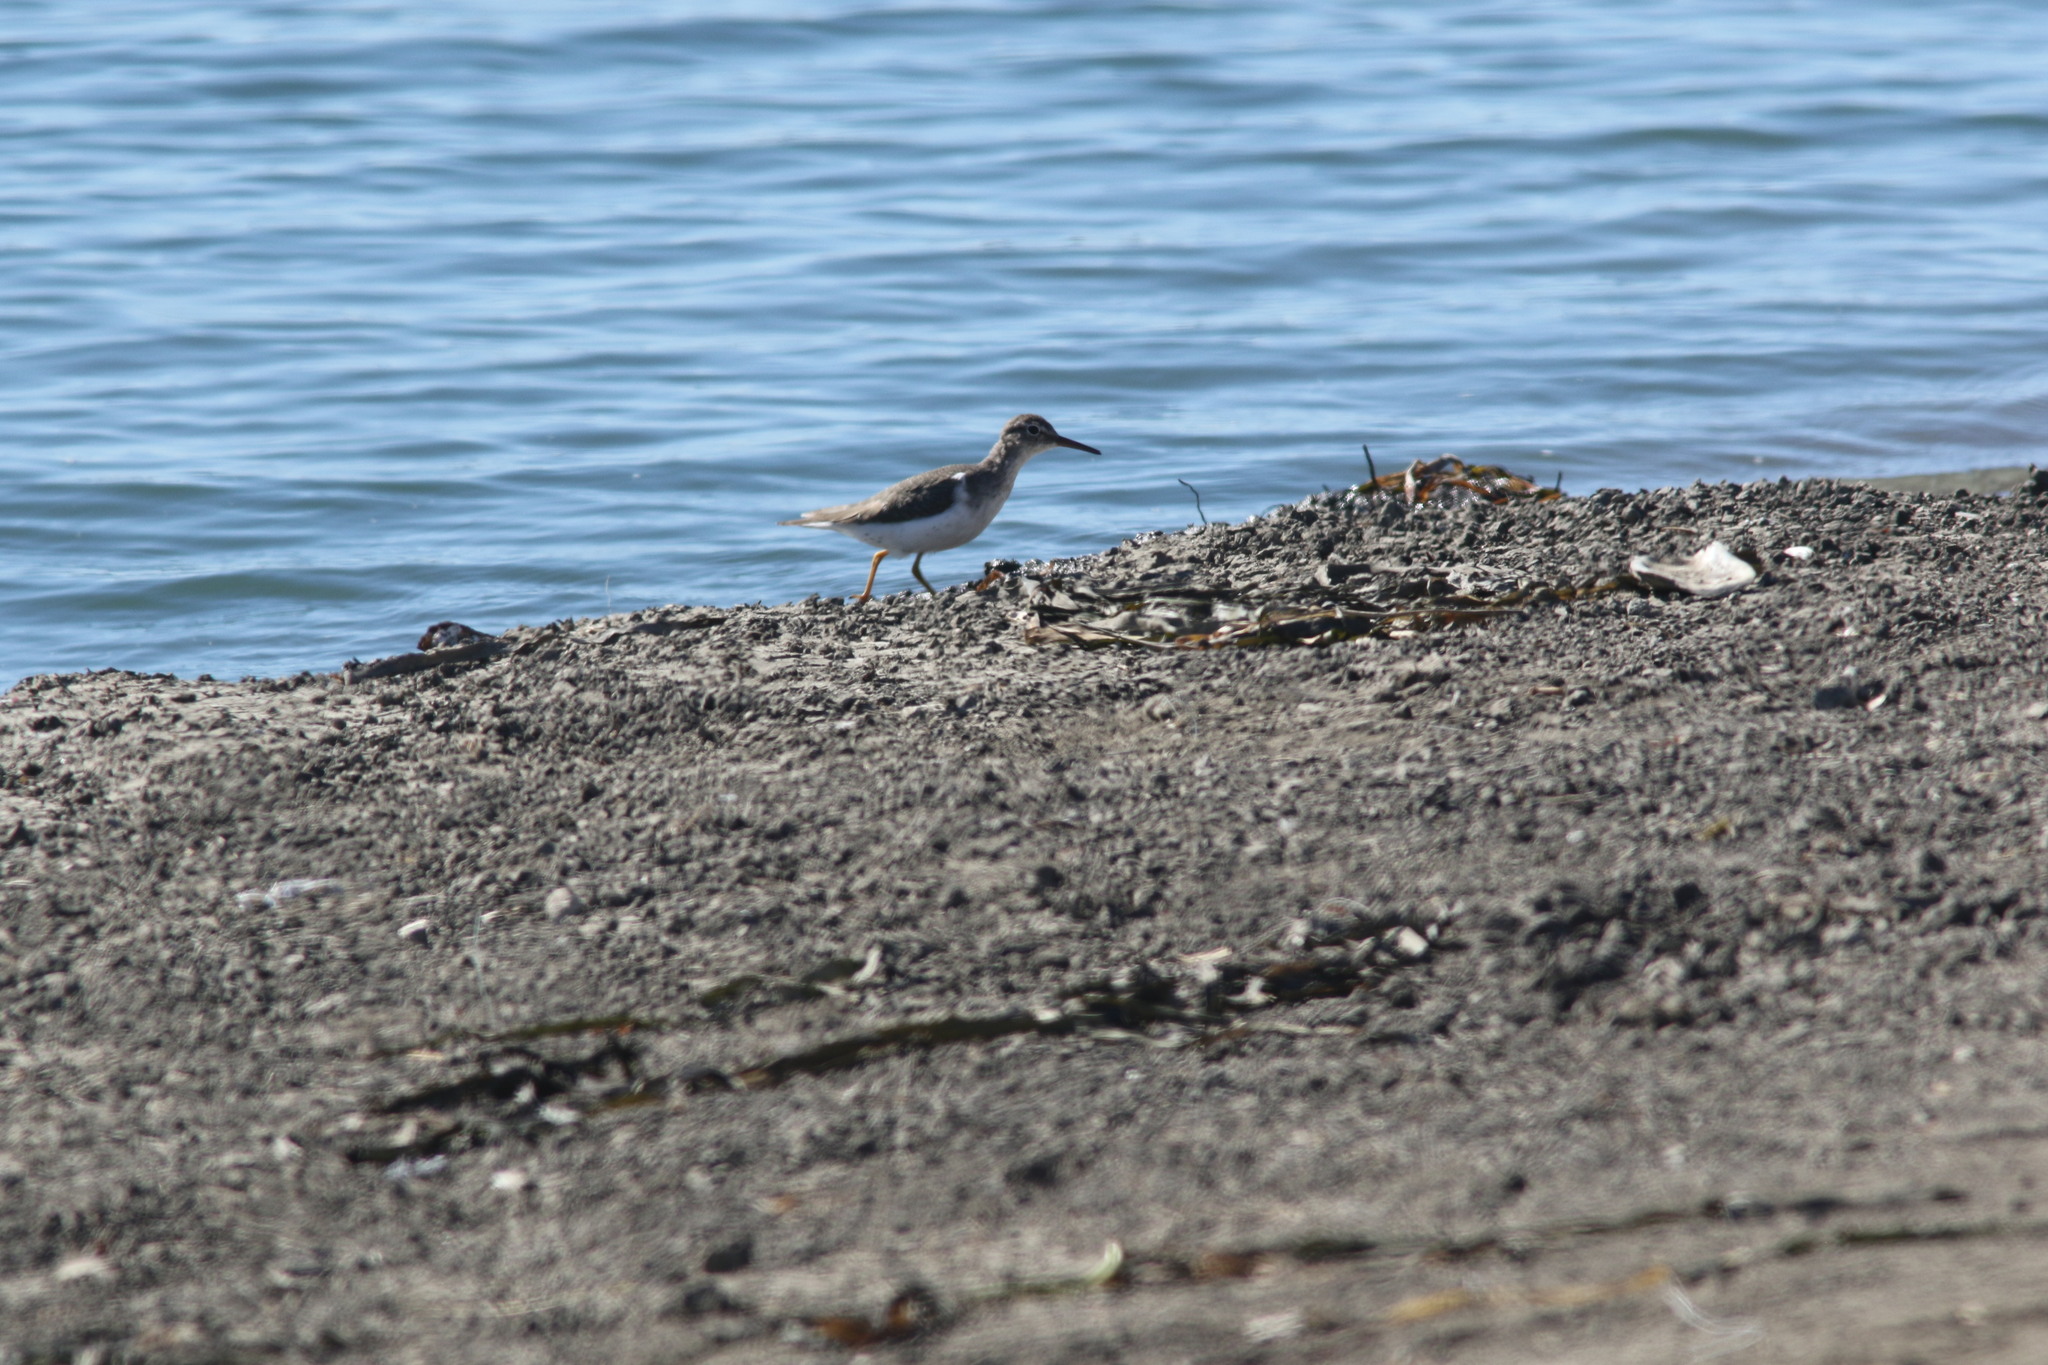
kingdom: Animalia
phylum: Chordata
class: Aves
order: Charadriiformes
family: Scolopacidae
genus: Actitis
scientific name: Actitis macularius
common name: Spotted sandpiper
